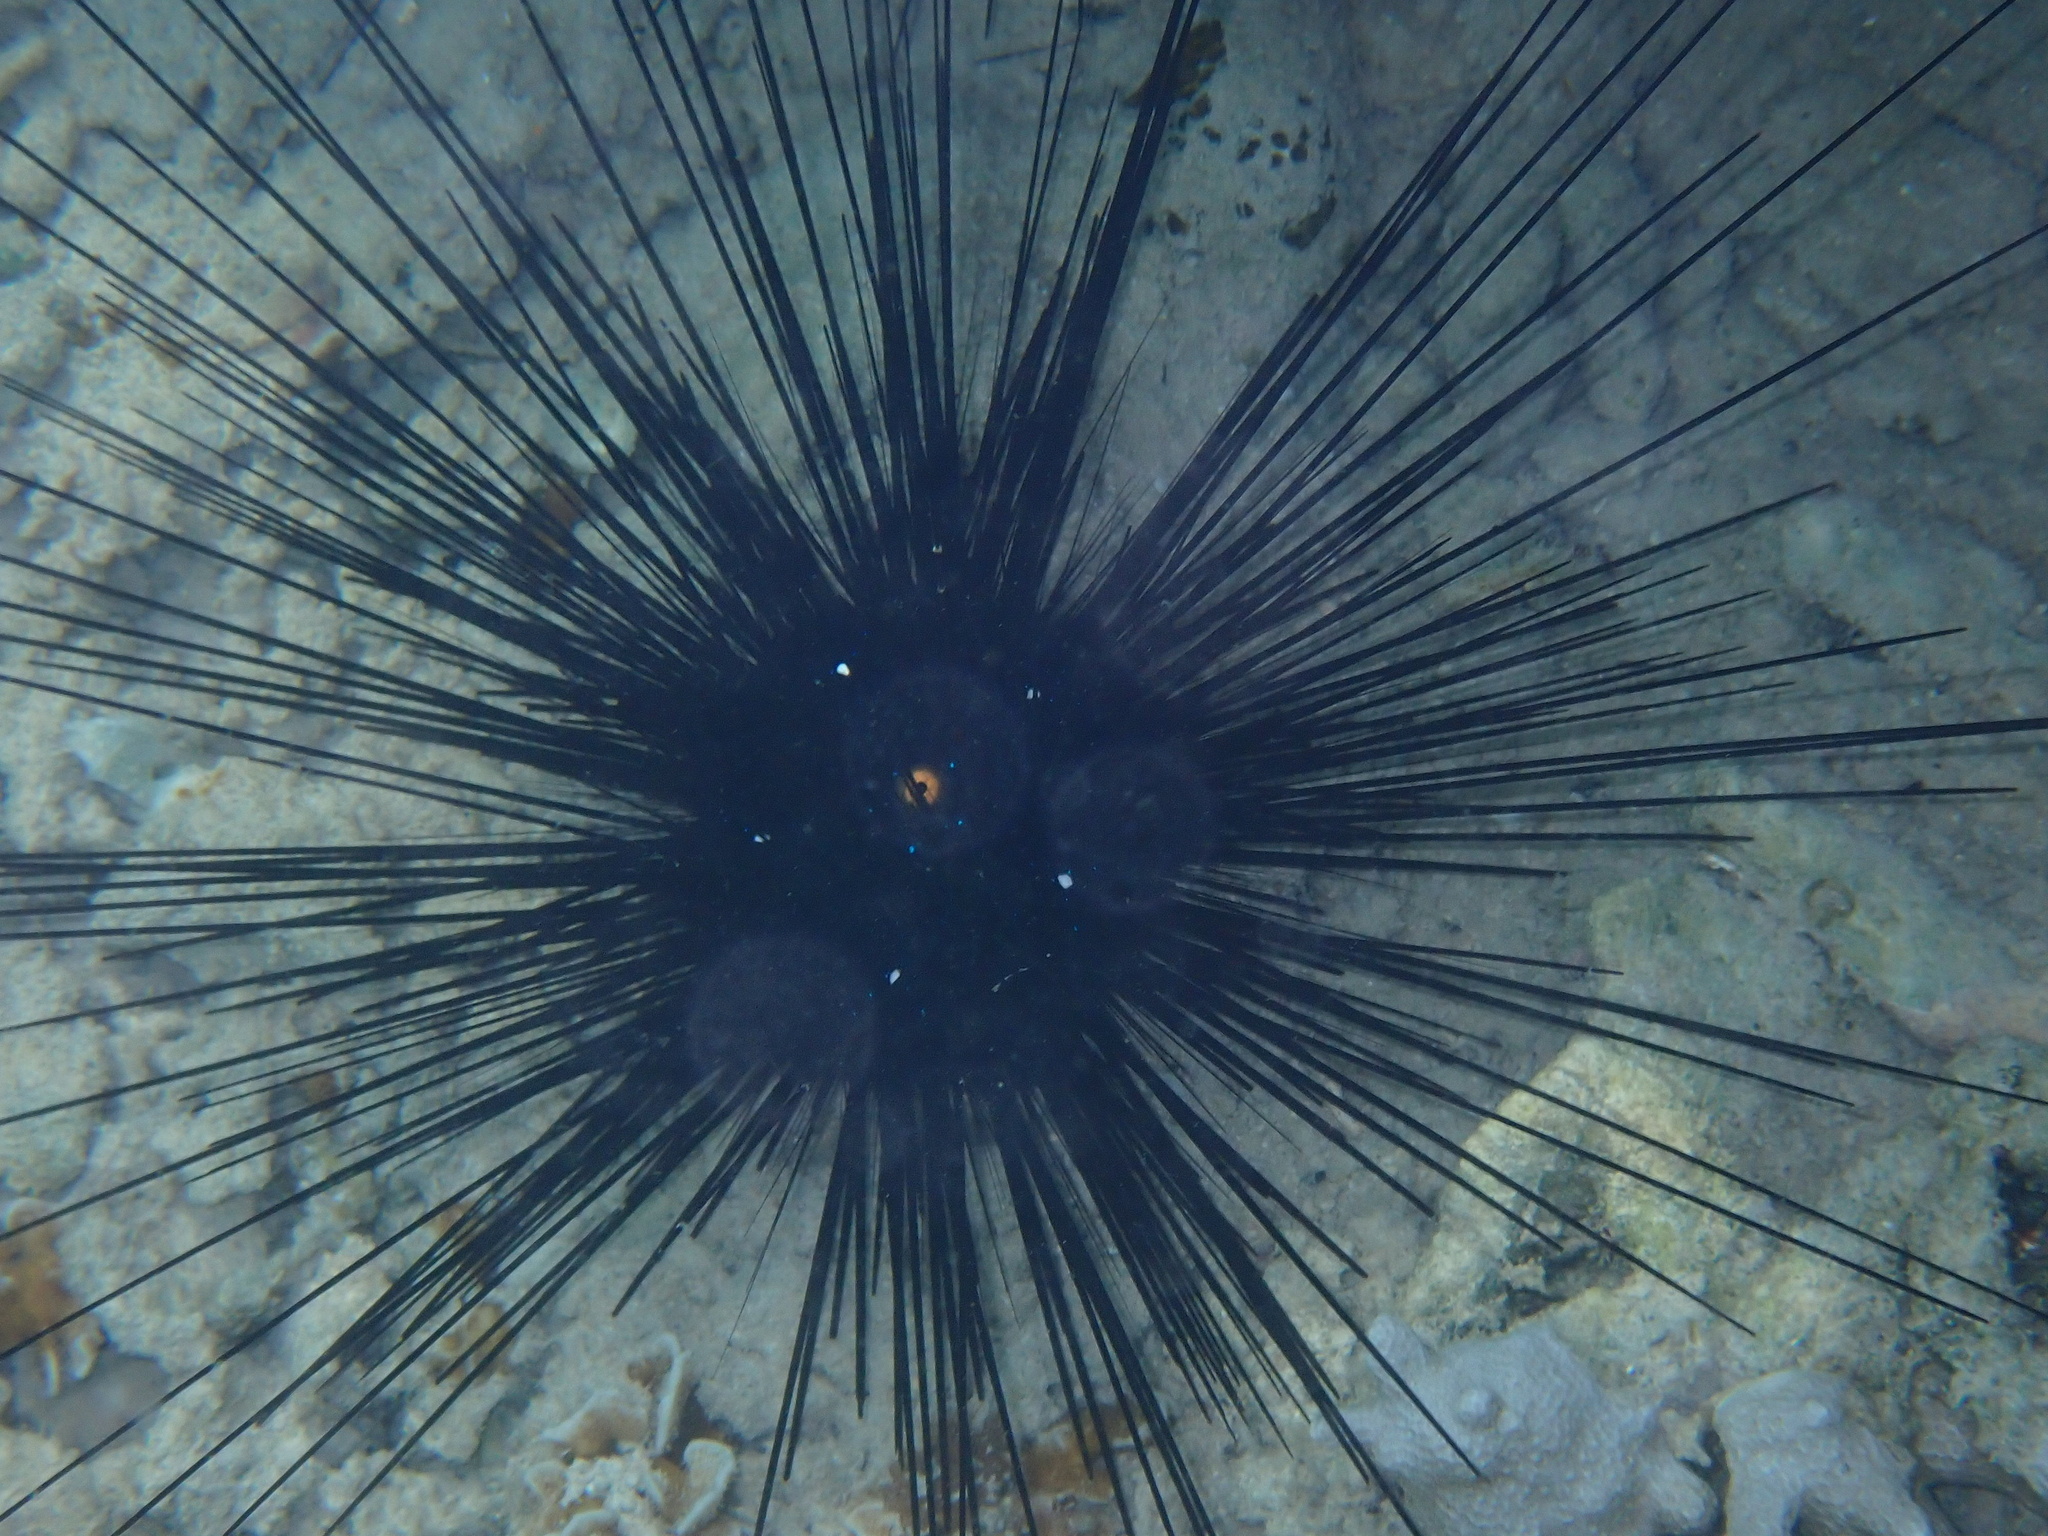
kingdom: Animalia
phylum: Echinodermata
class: Echinoidea
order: Diadematoida
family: Diadematidae
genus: Diadema
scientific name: Diadema setosum
